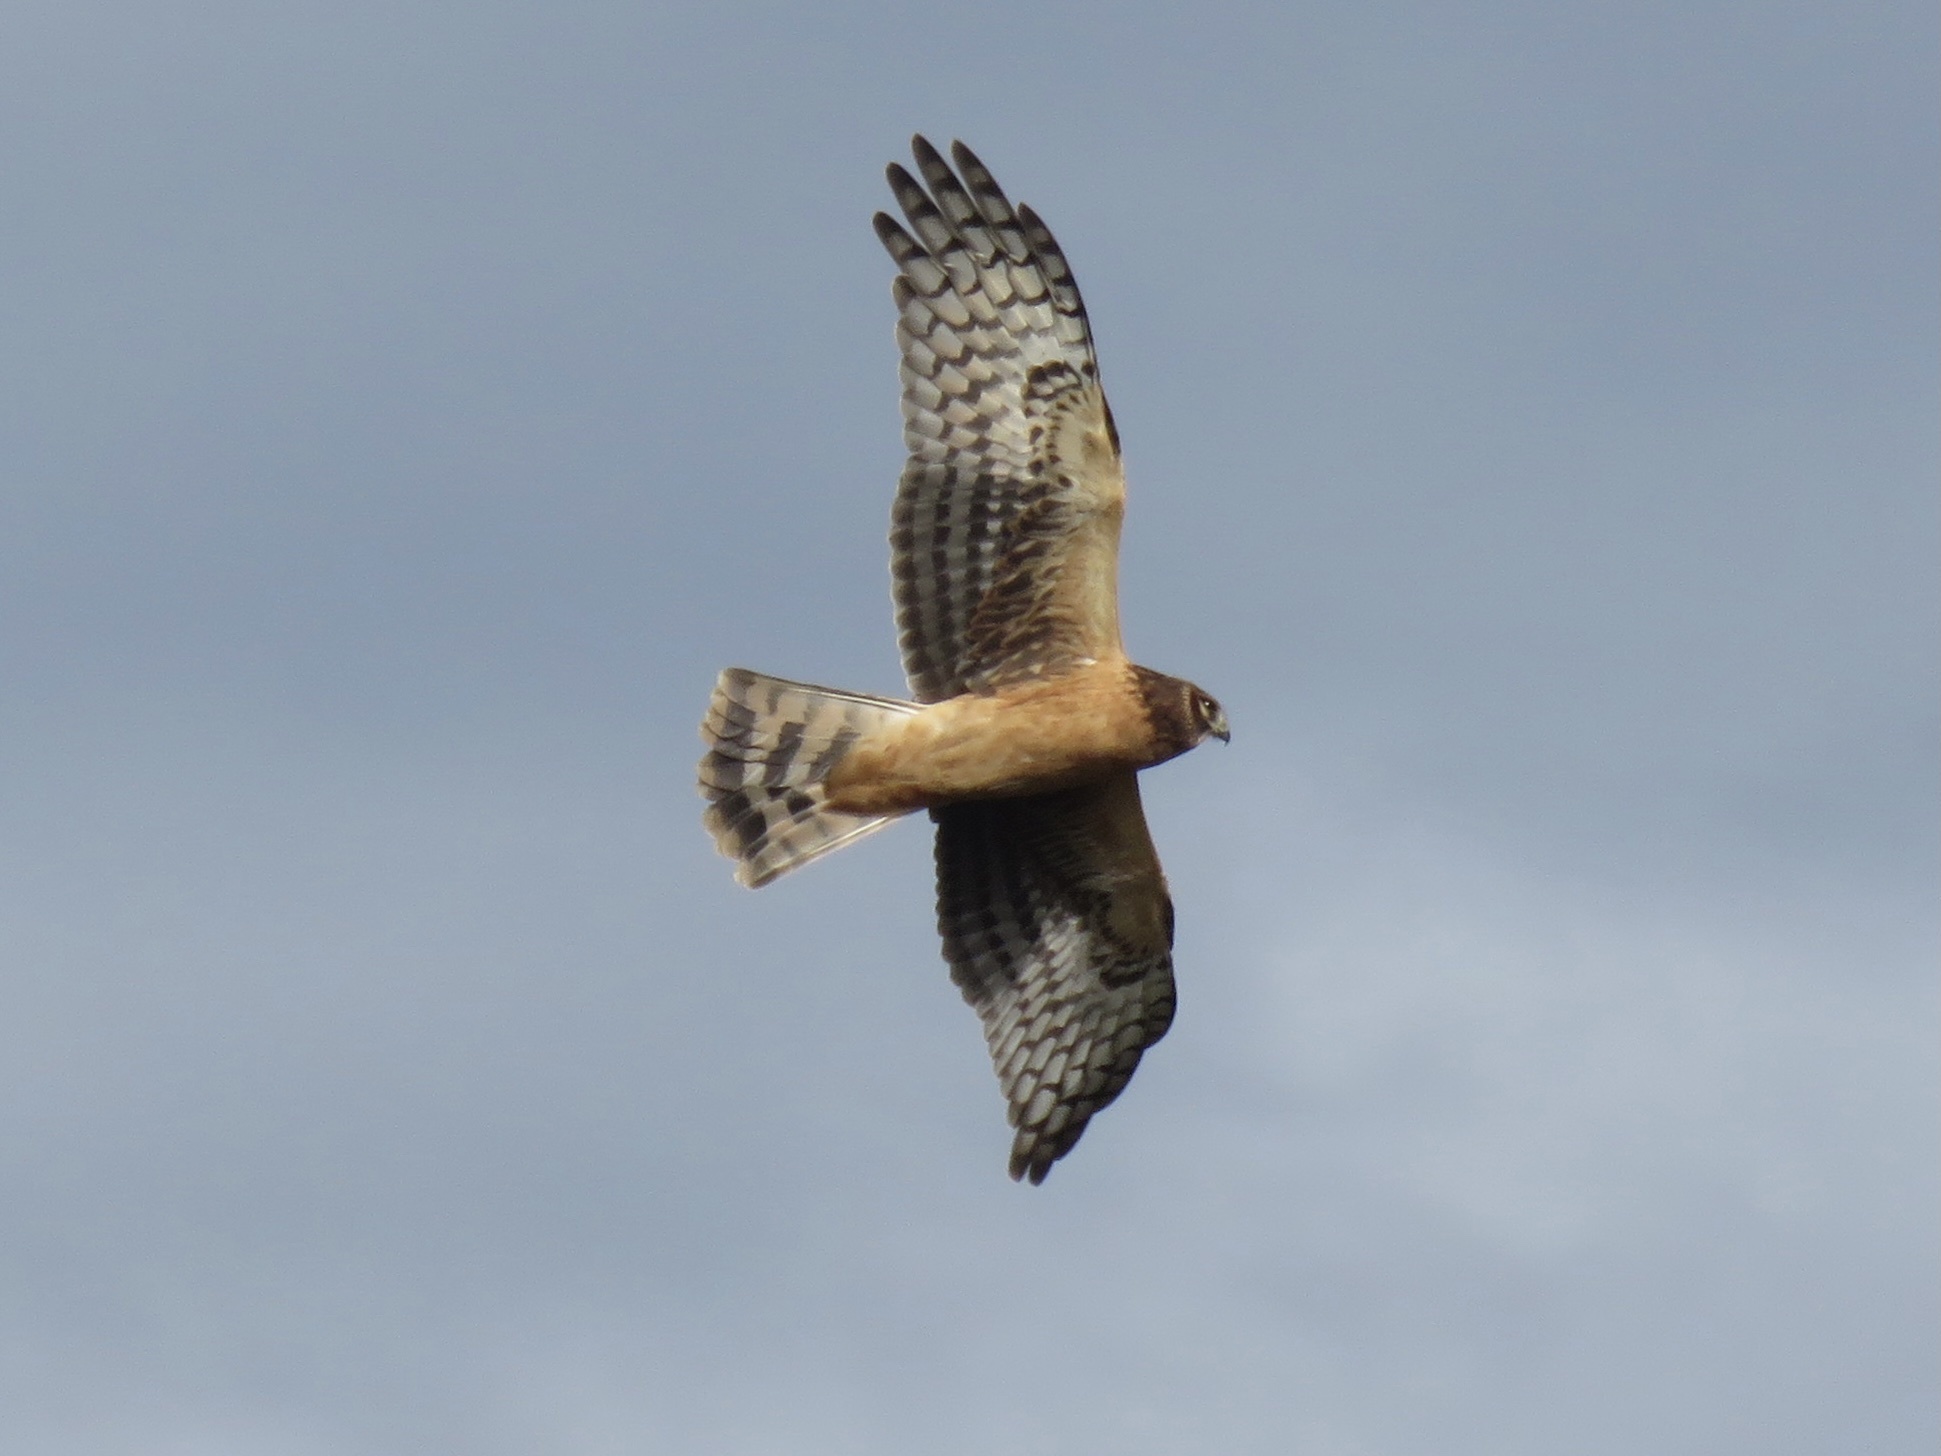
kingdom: Animalia
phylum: Chordata
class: Aves
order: Accipitriformes
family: Accipitridae
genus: Circus
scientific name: Circus cyaneus
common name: Hen harrier
